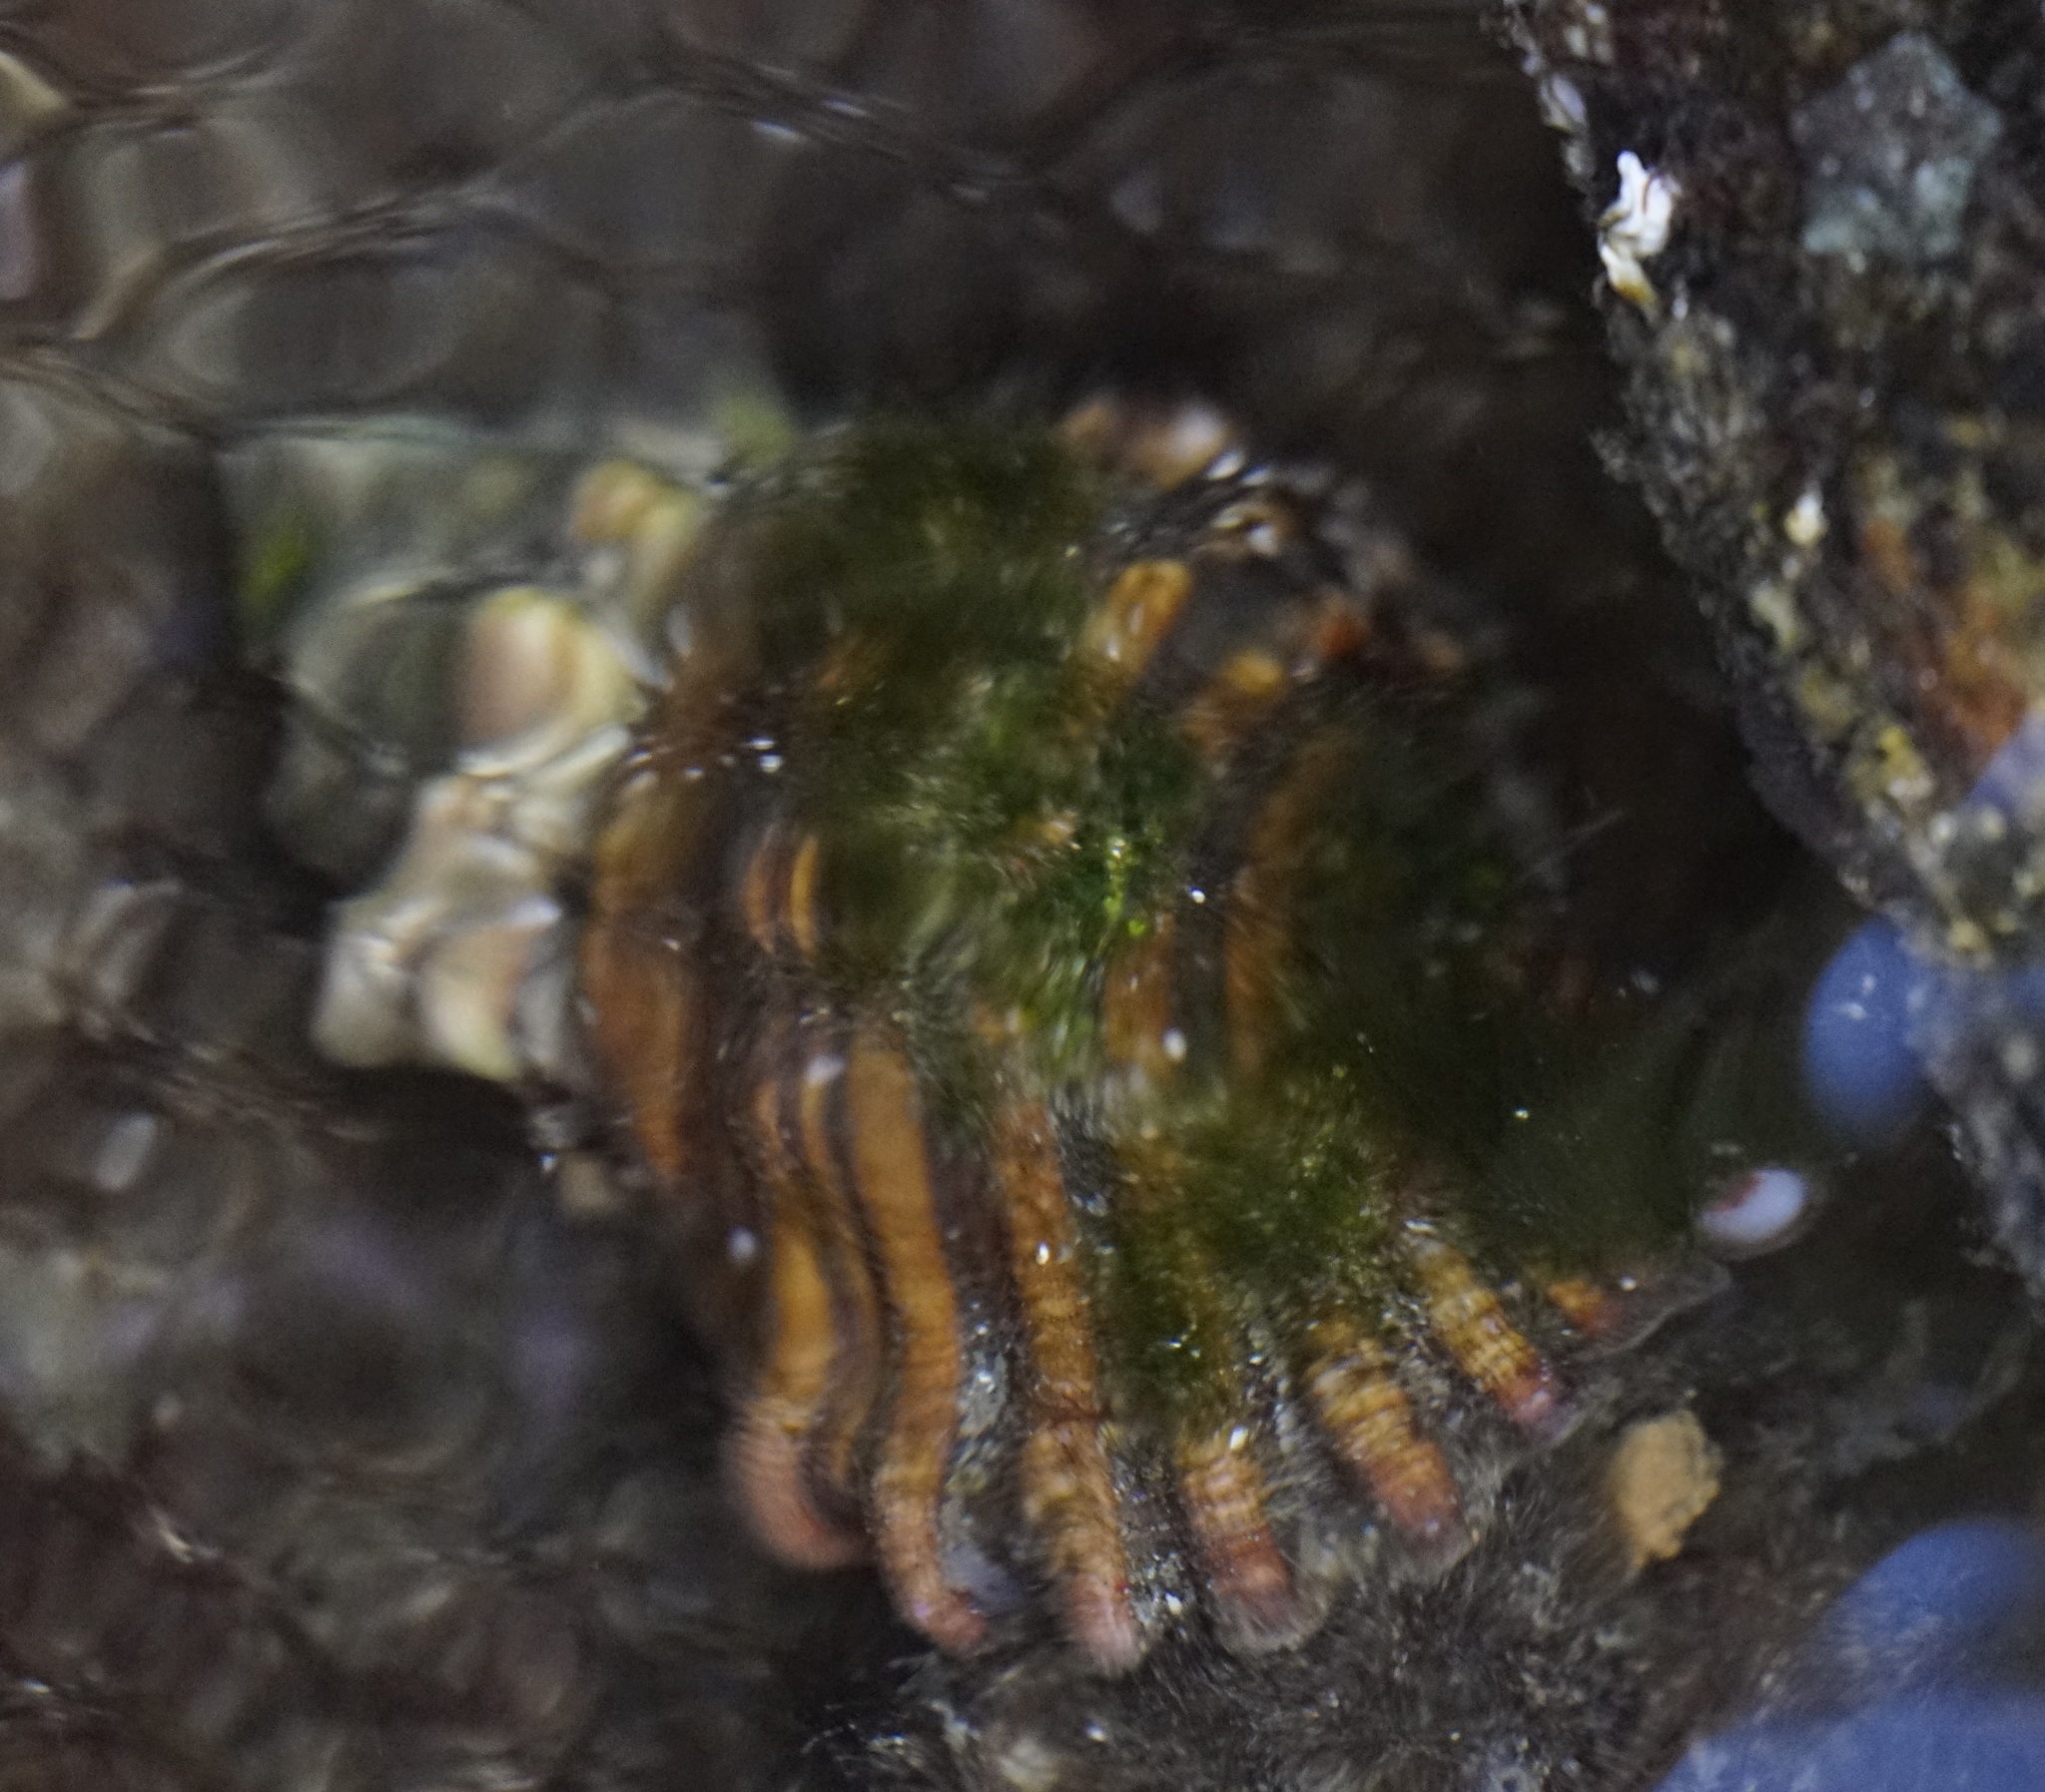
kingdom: Animalia
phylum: Mollusca
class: Gastropoda
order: Littorinimorpha
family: Cymatiidae
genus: Cabestana
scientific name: Cabestana spengleri
